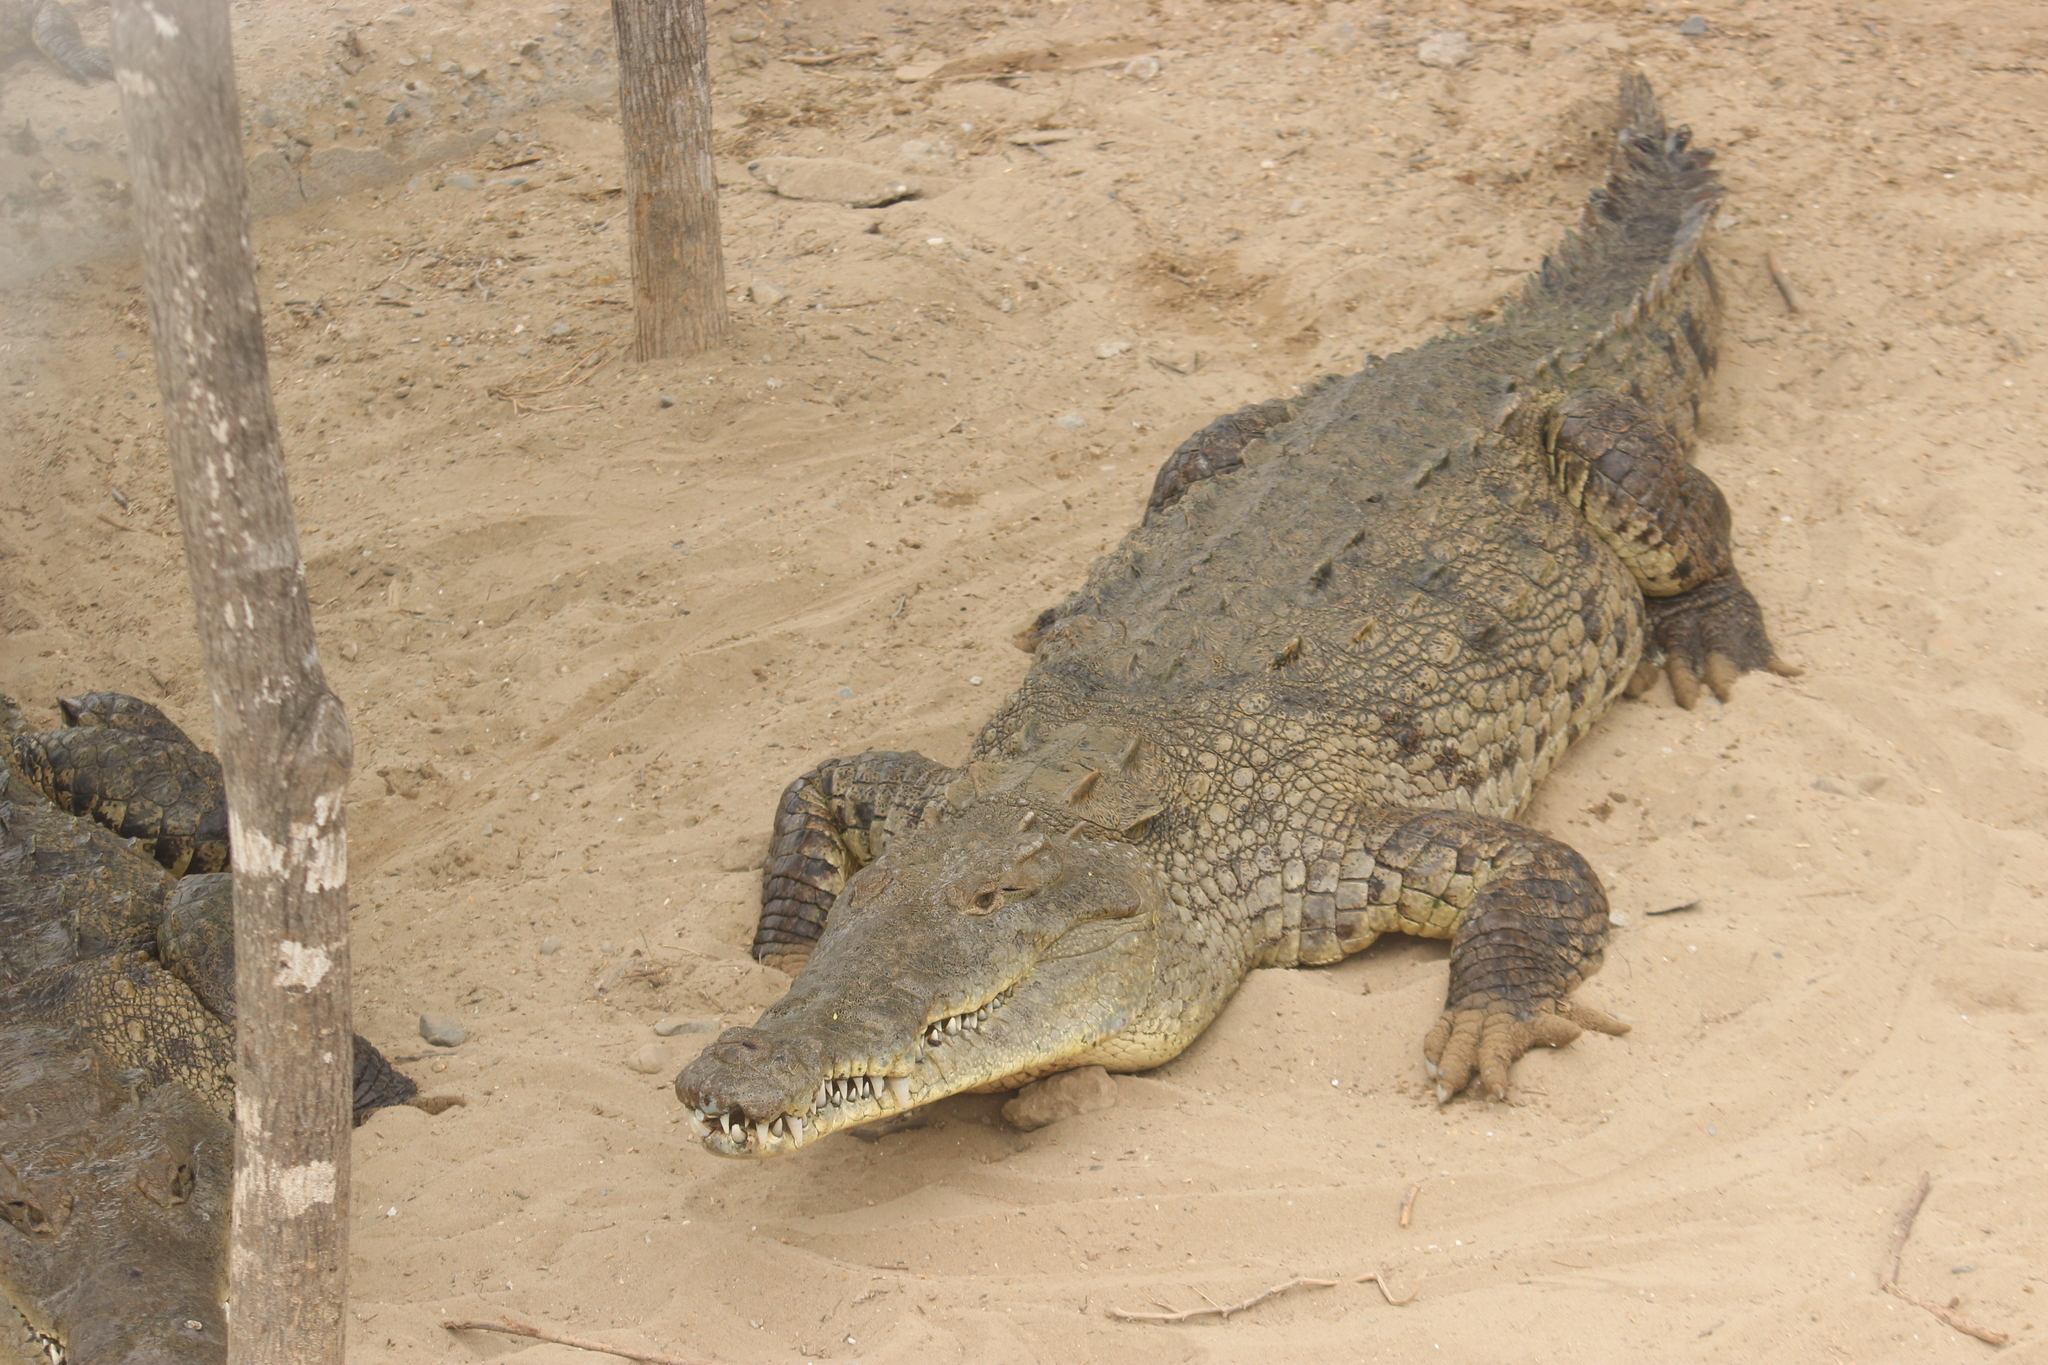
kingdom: Animalia
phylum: Chordata
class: Crocodylia
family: Crocodylidae
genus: Crocodylus
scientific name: Crocodylus acutus
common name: American crocodile
